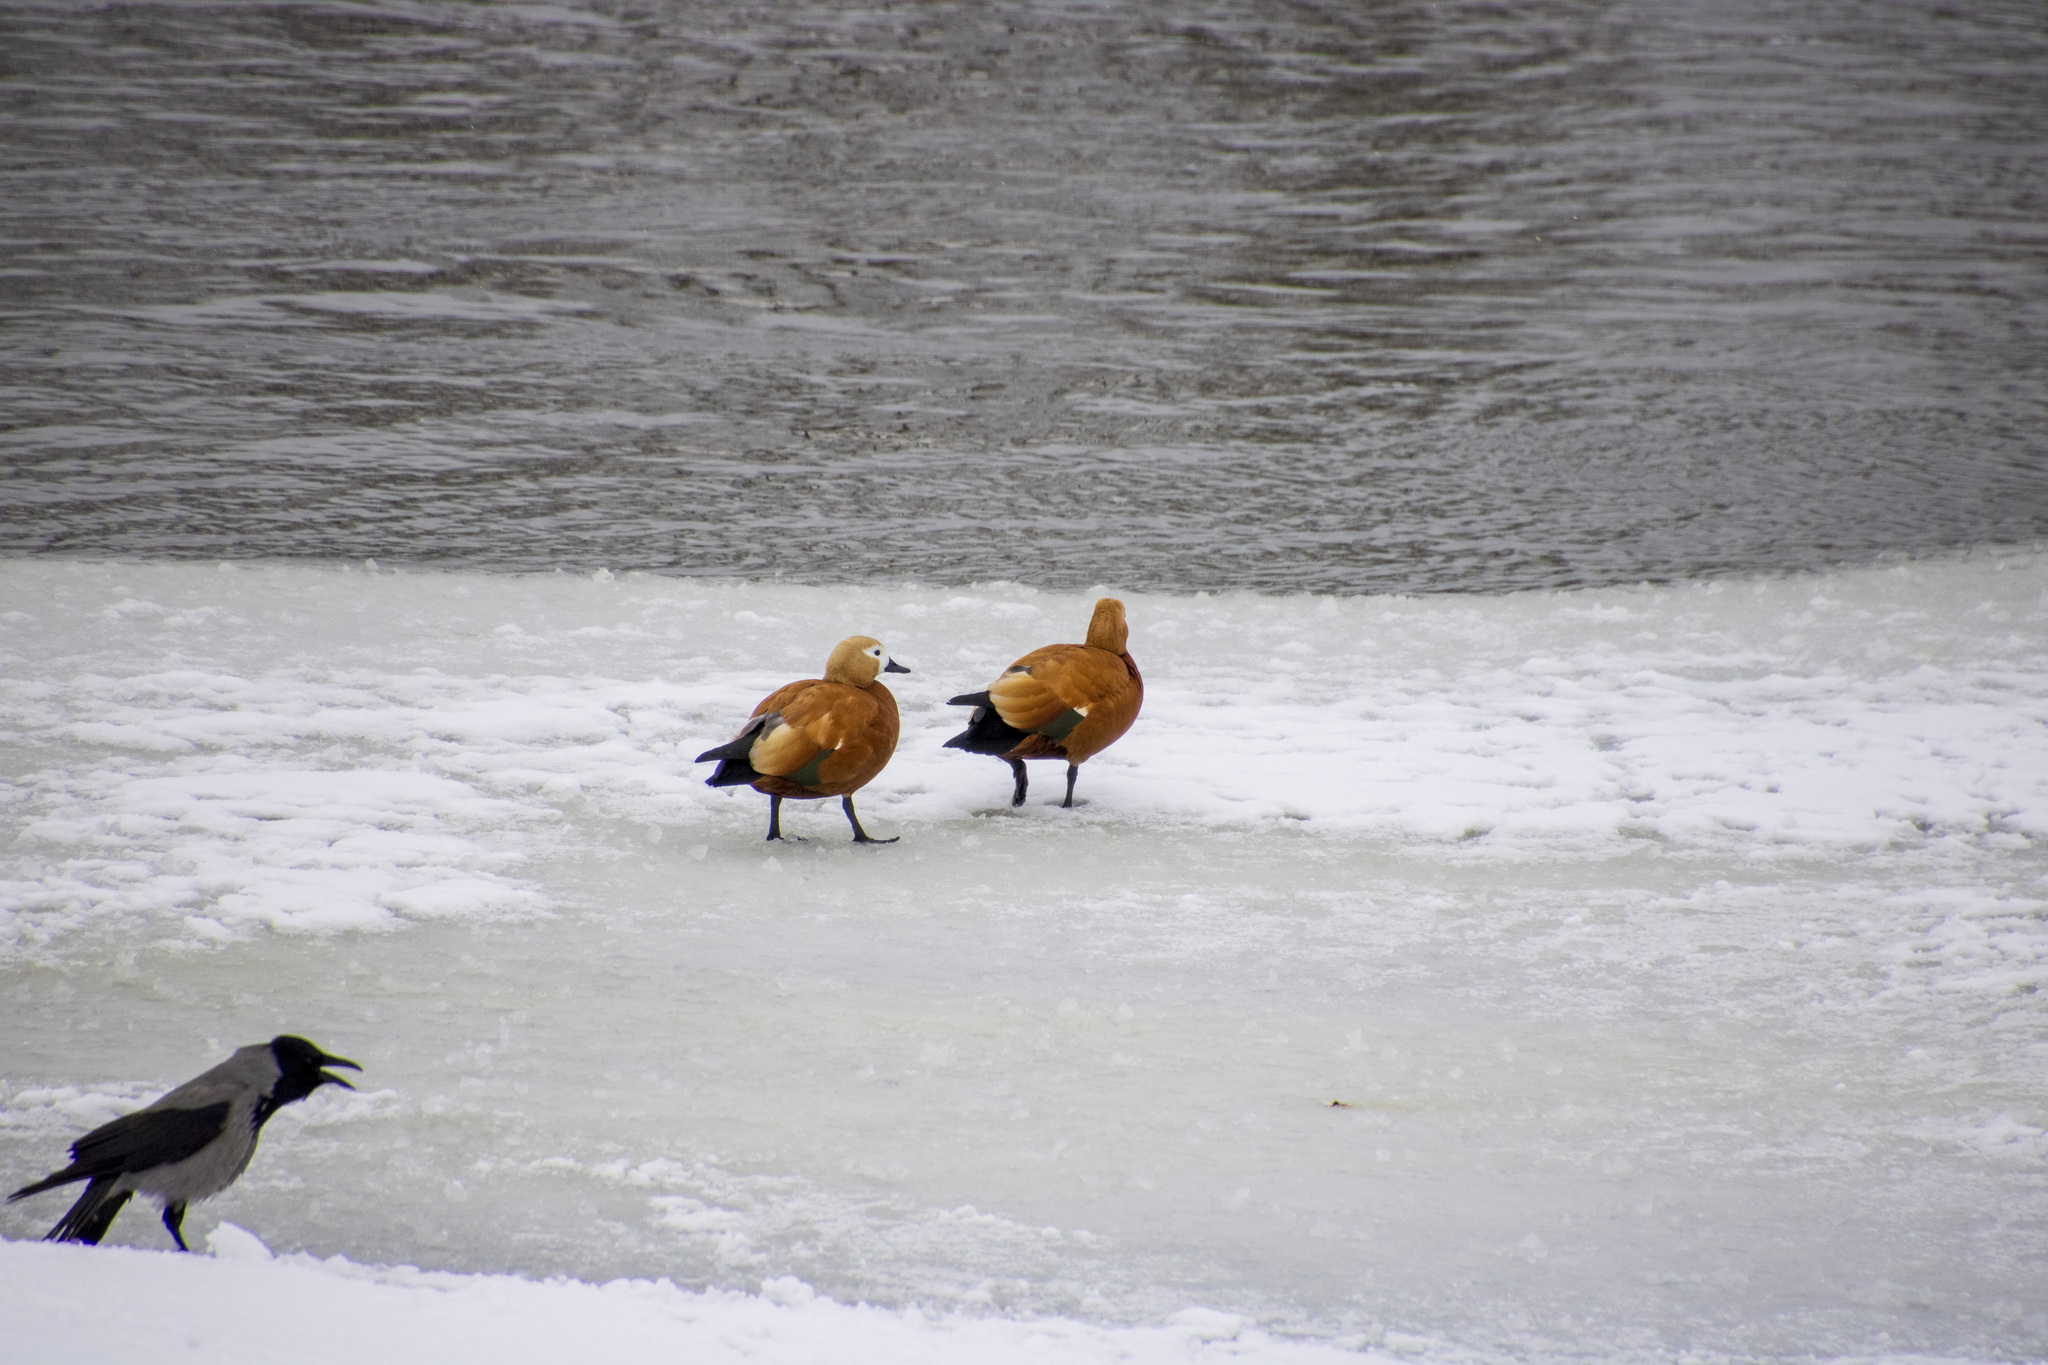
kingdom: Animalia
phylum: Chordata
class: Aves
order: Anseriformes
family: Anatidae
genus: Tadorna
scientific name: Tadorna ferruginea
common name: Ruddy shelduck
